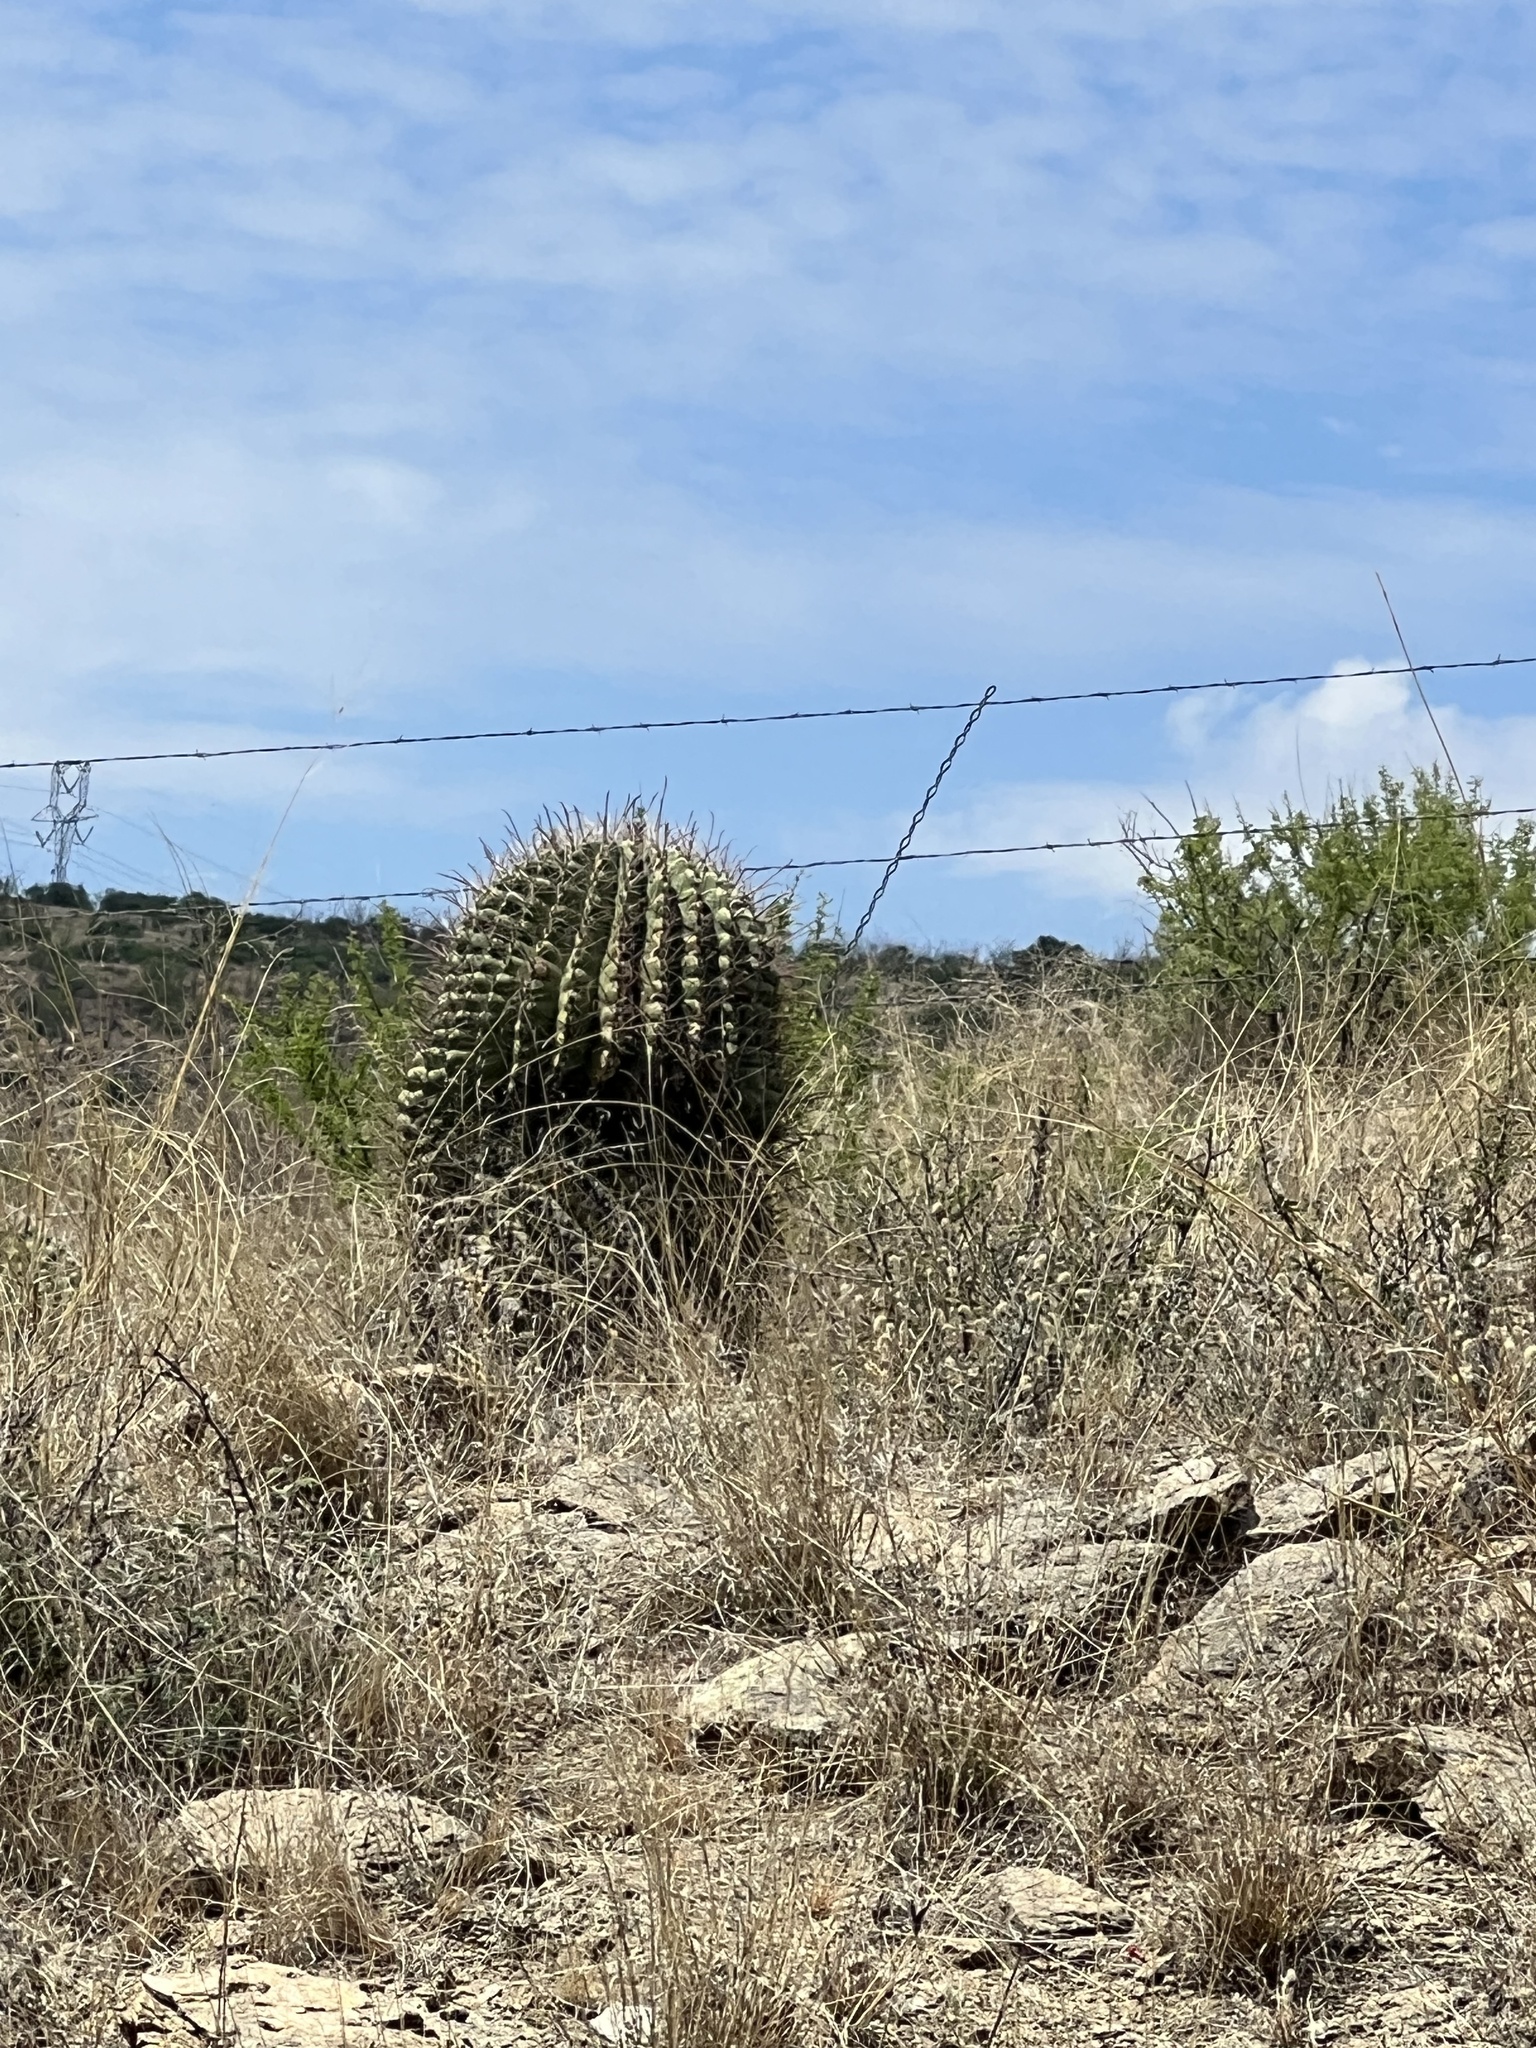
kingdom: Plantae
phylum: Tracheophyta
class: Magnoliopsida
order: Caryophyllales
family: Cactaceae
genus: Ferocactus
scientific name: Ferocactus wislizeni
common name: Candy barrel cactus
